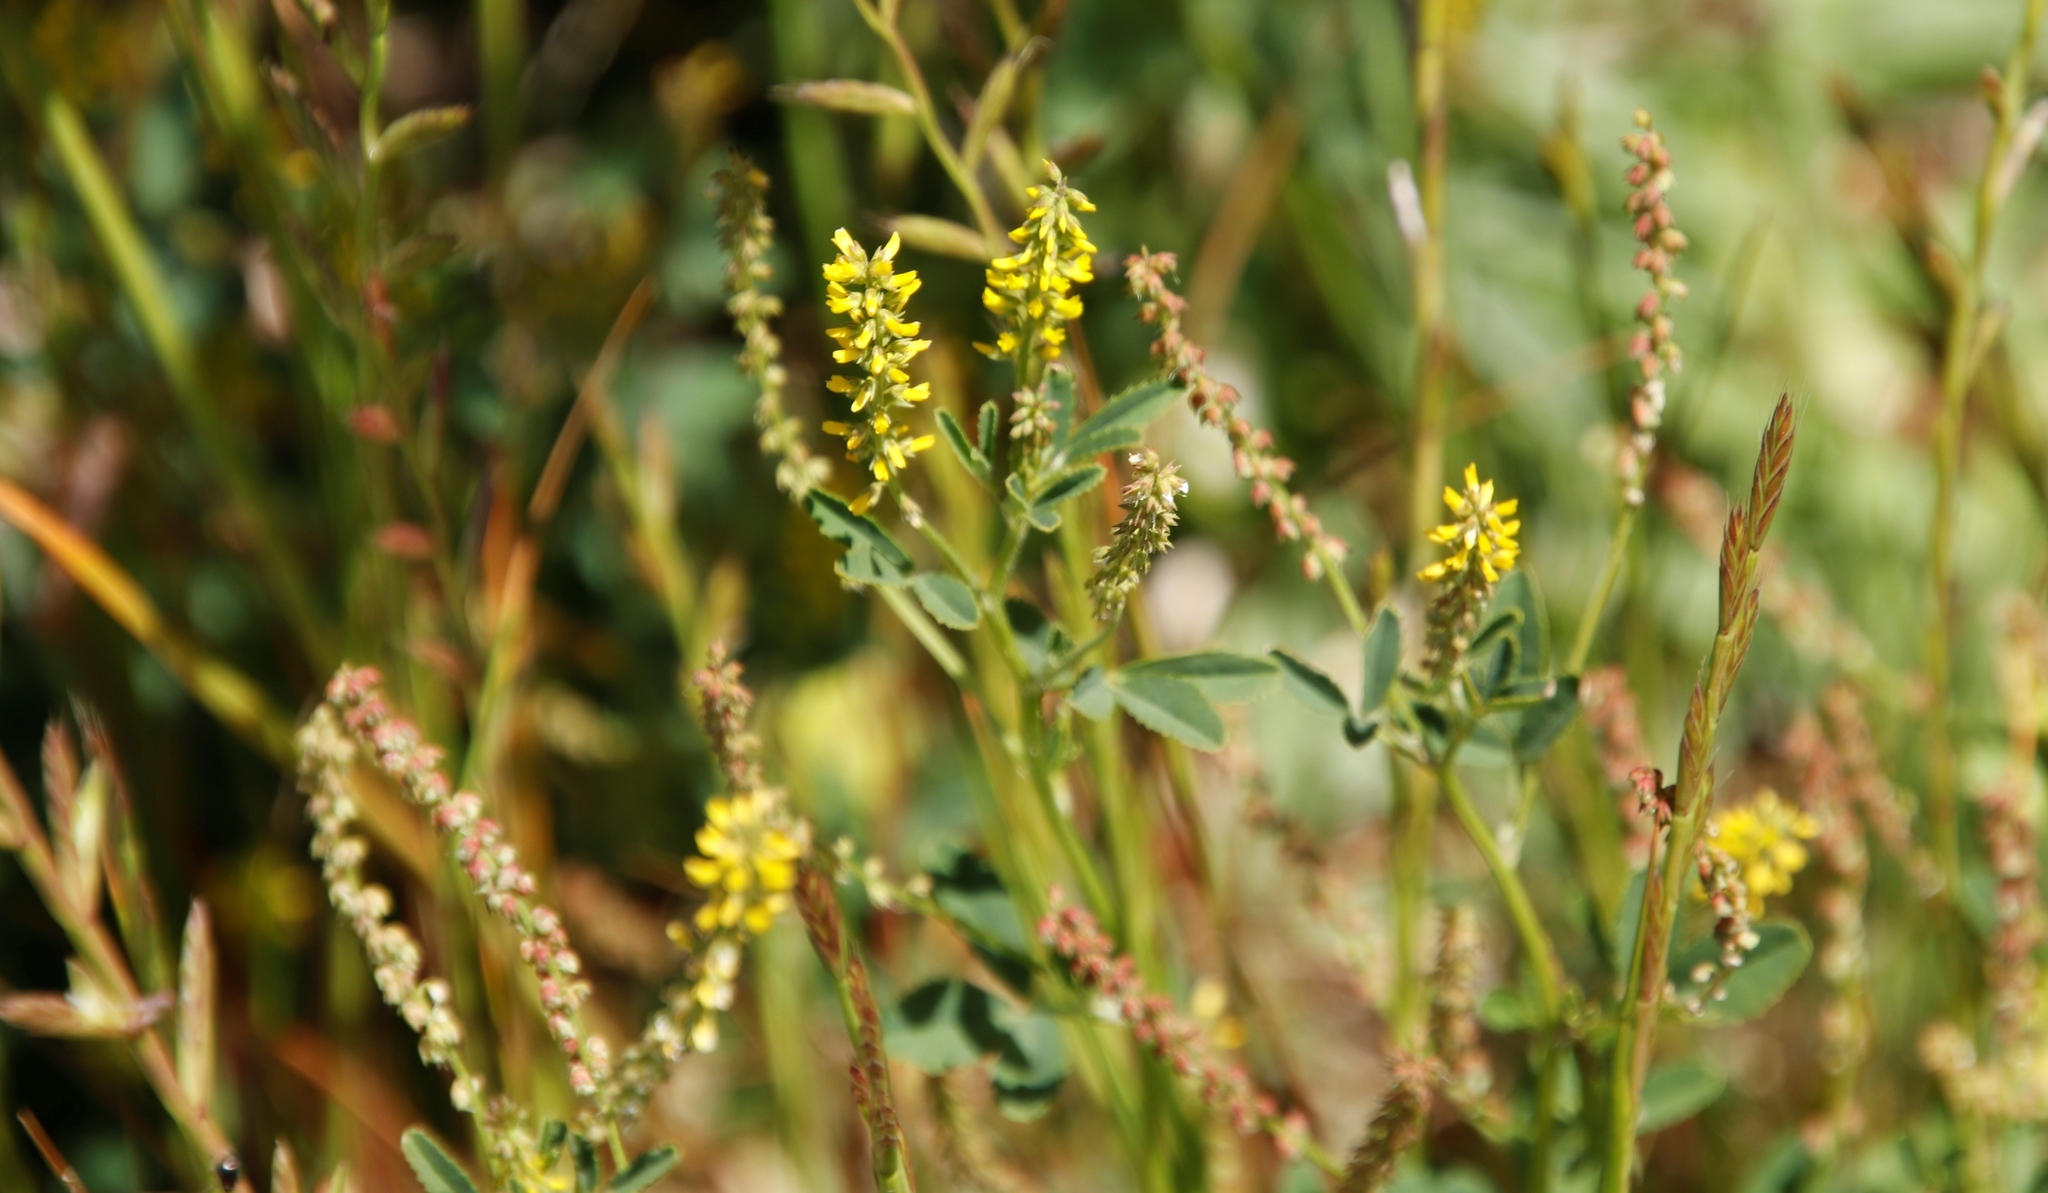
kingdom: Plantae
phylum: Tracheophyta
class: Magnoliopsida
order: Fabales
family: Fabaceae
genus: Melilotus
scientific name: Melilotus indicus
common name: Small melilot
